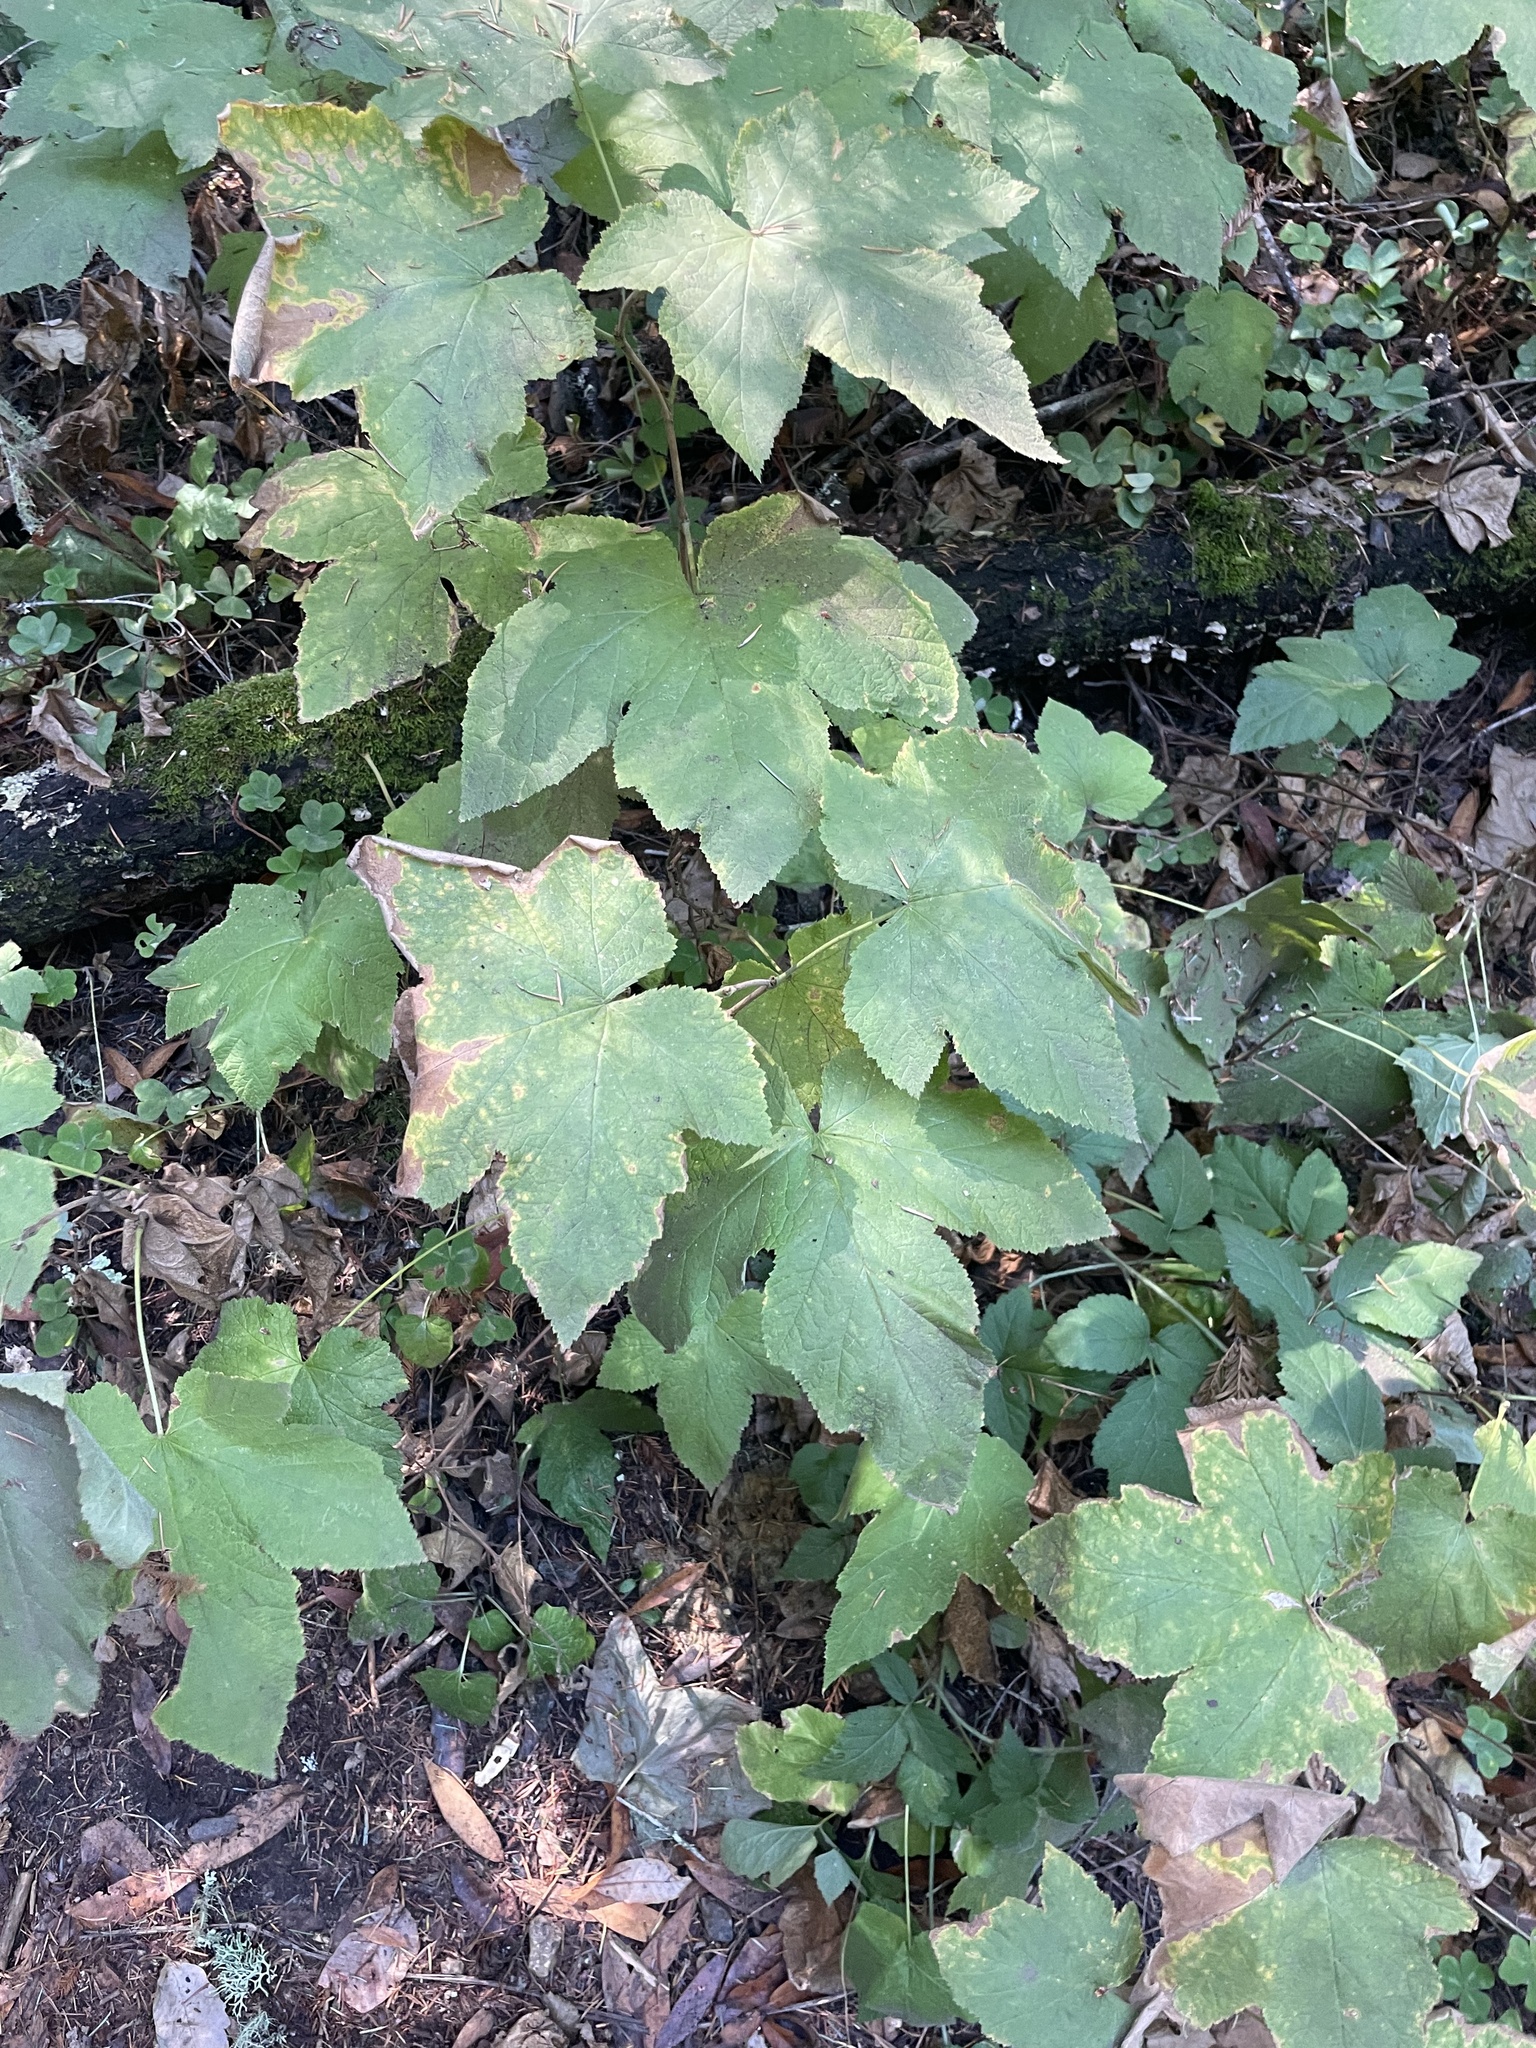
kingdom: Plantae
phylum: Tracheophyta
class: Magnoliopsida
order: Rosales
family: Rosaceae
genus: Rubus
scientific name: Rubus parviflorus
